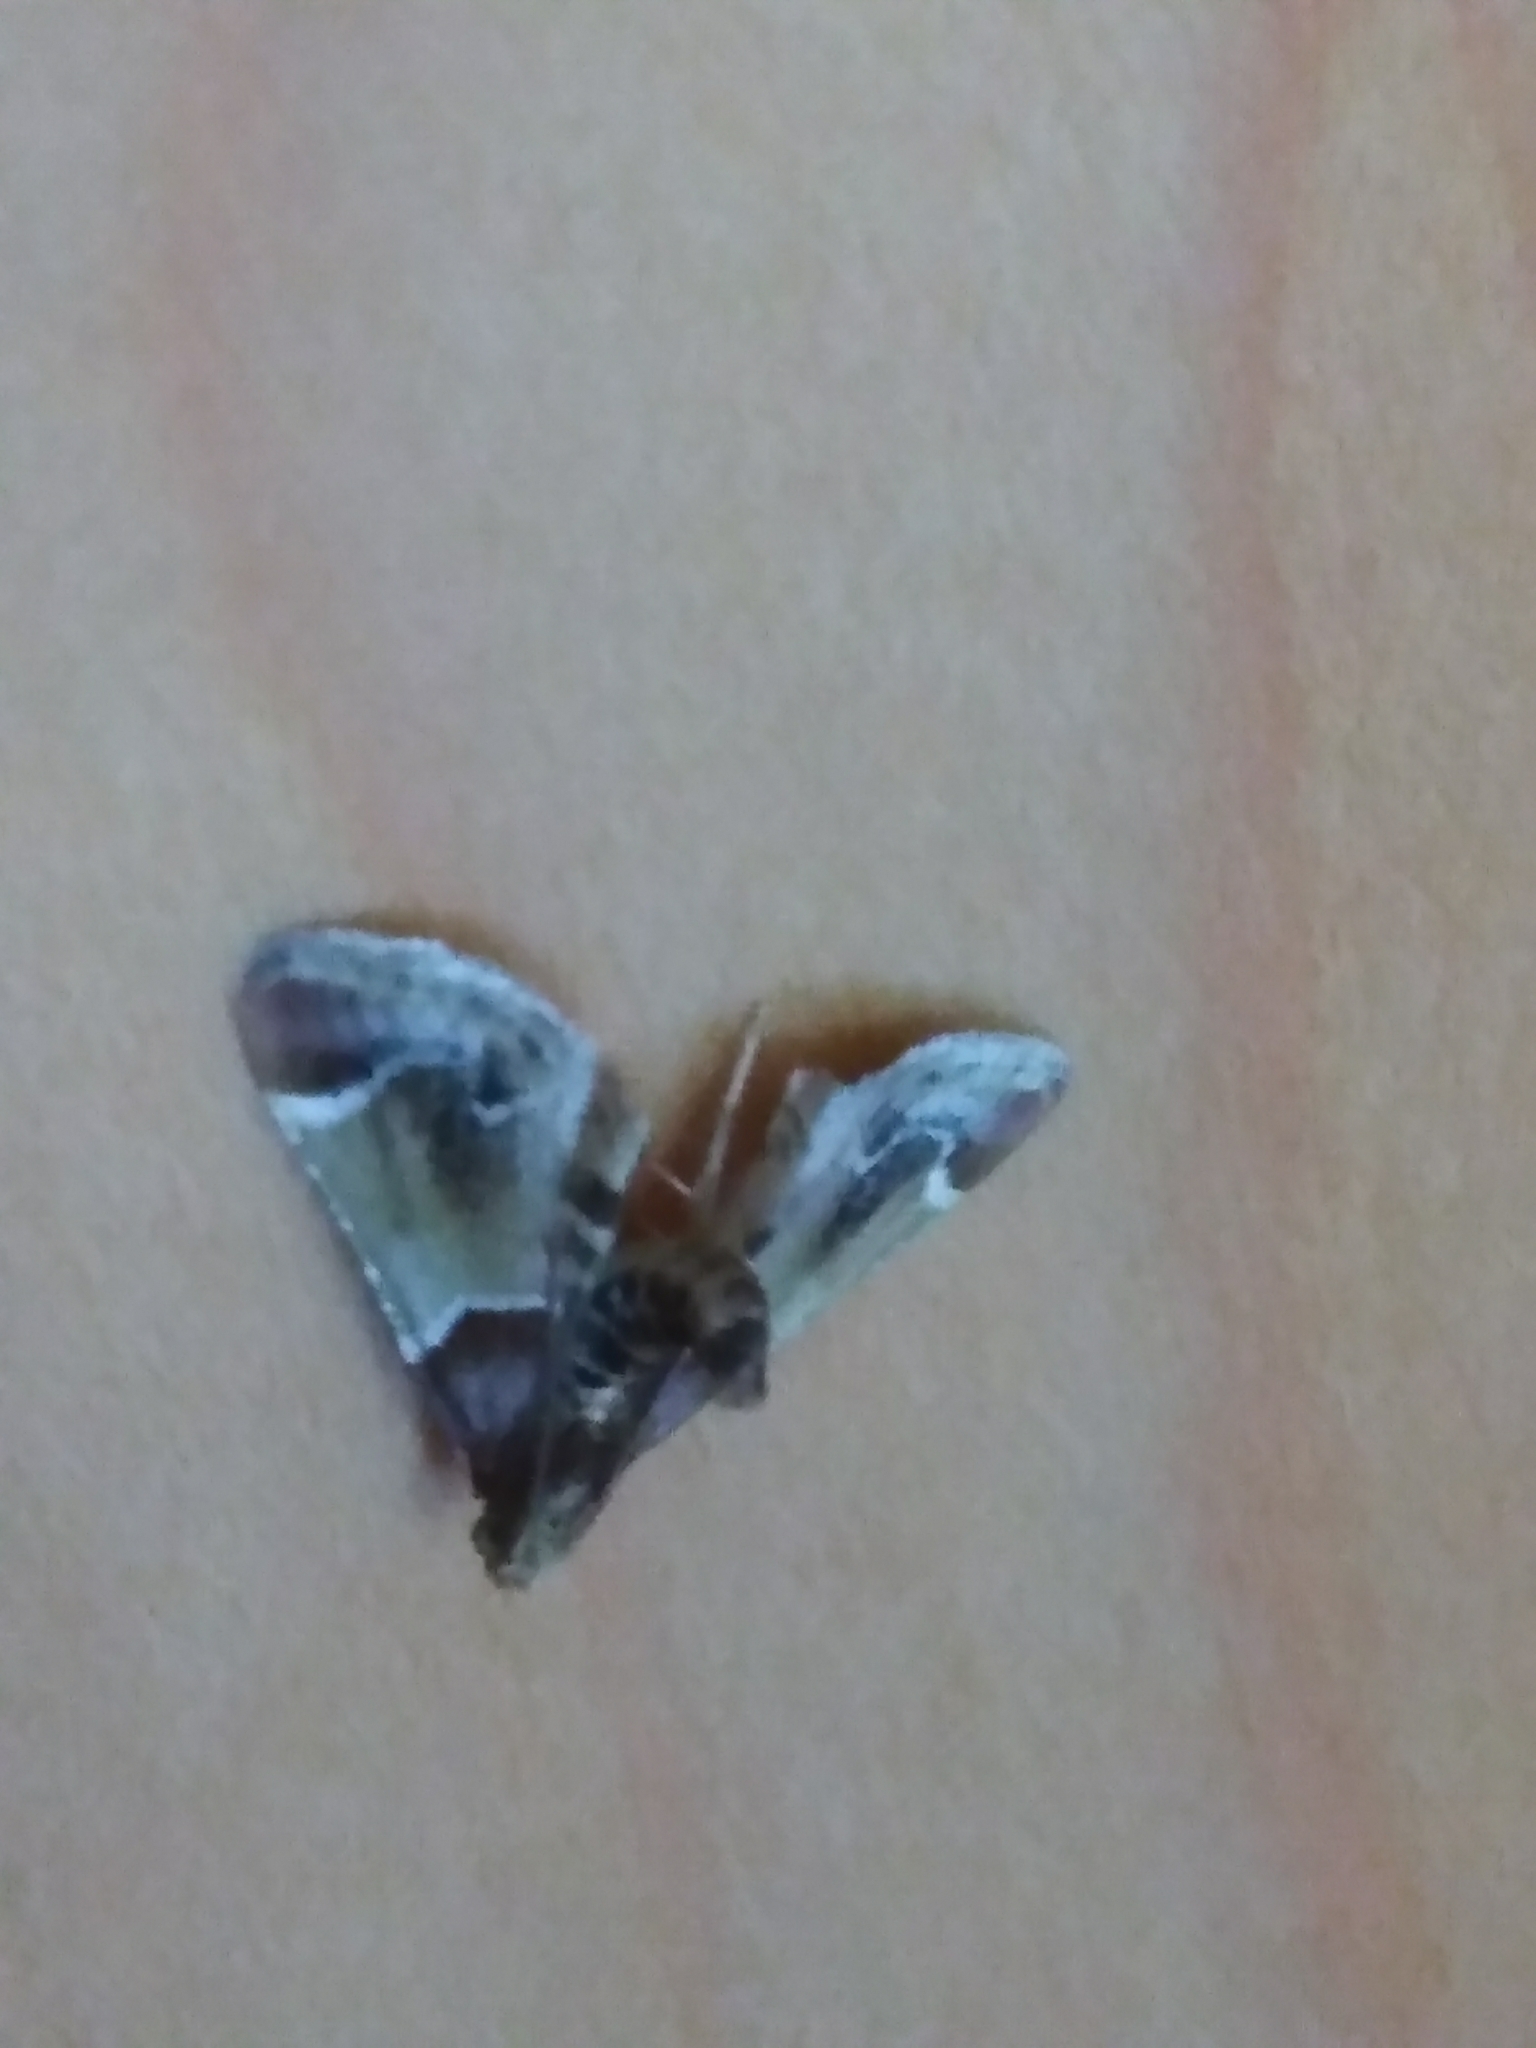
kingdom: Animalia
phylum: Arthropoda
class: Insecta
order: Lepidoptera
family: Pyralidae
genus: Pyralis
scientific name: Pyralis farinalis
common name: Meal moth
